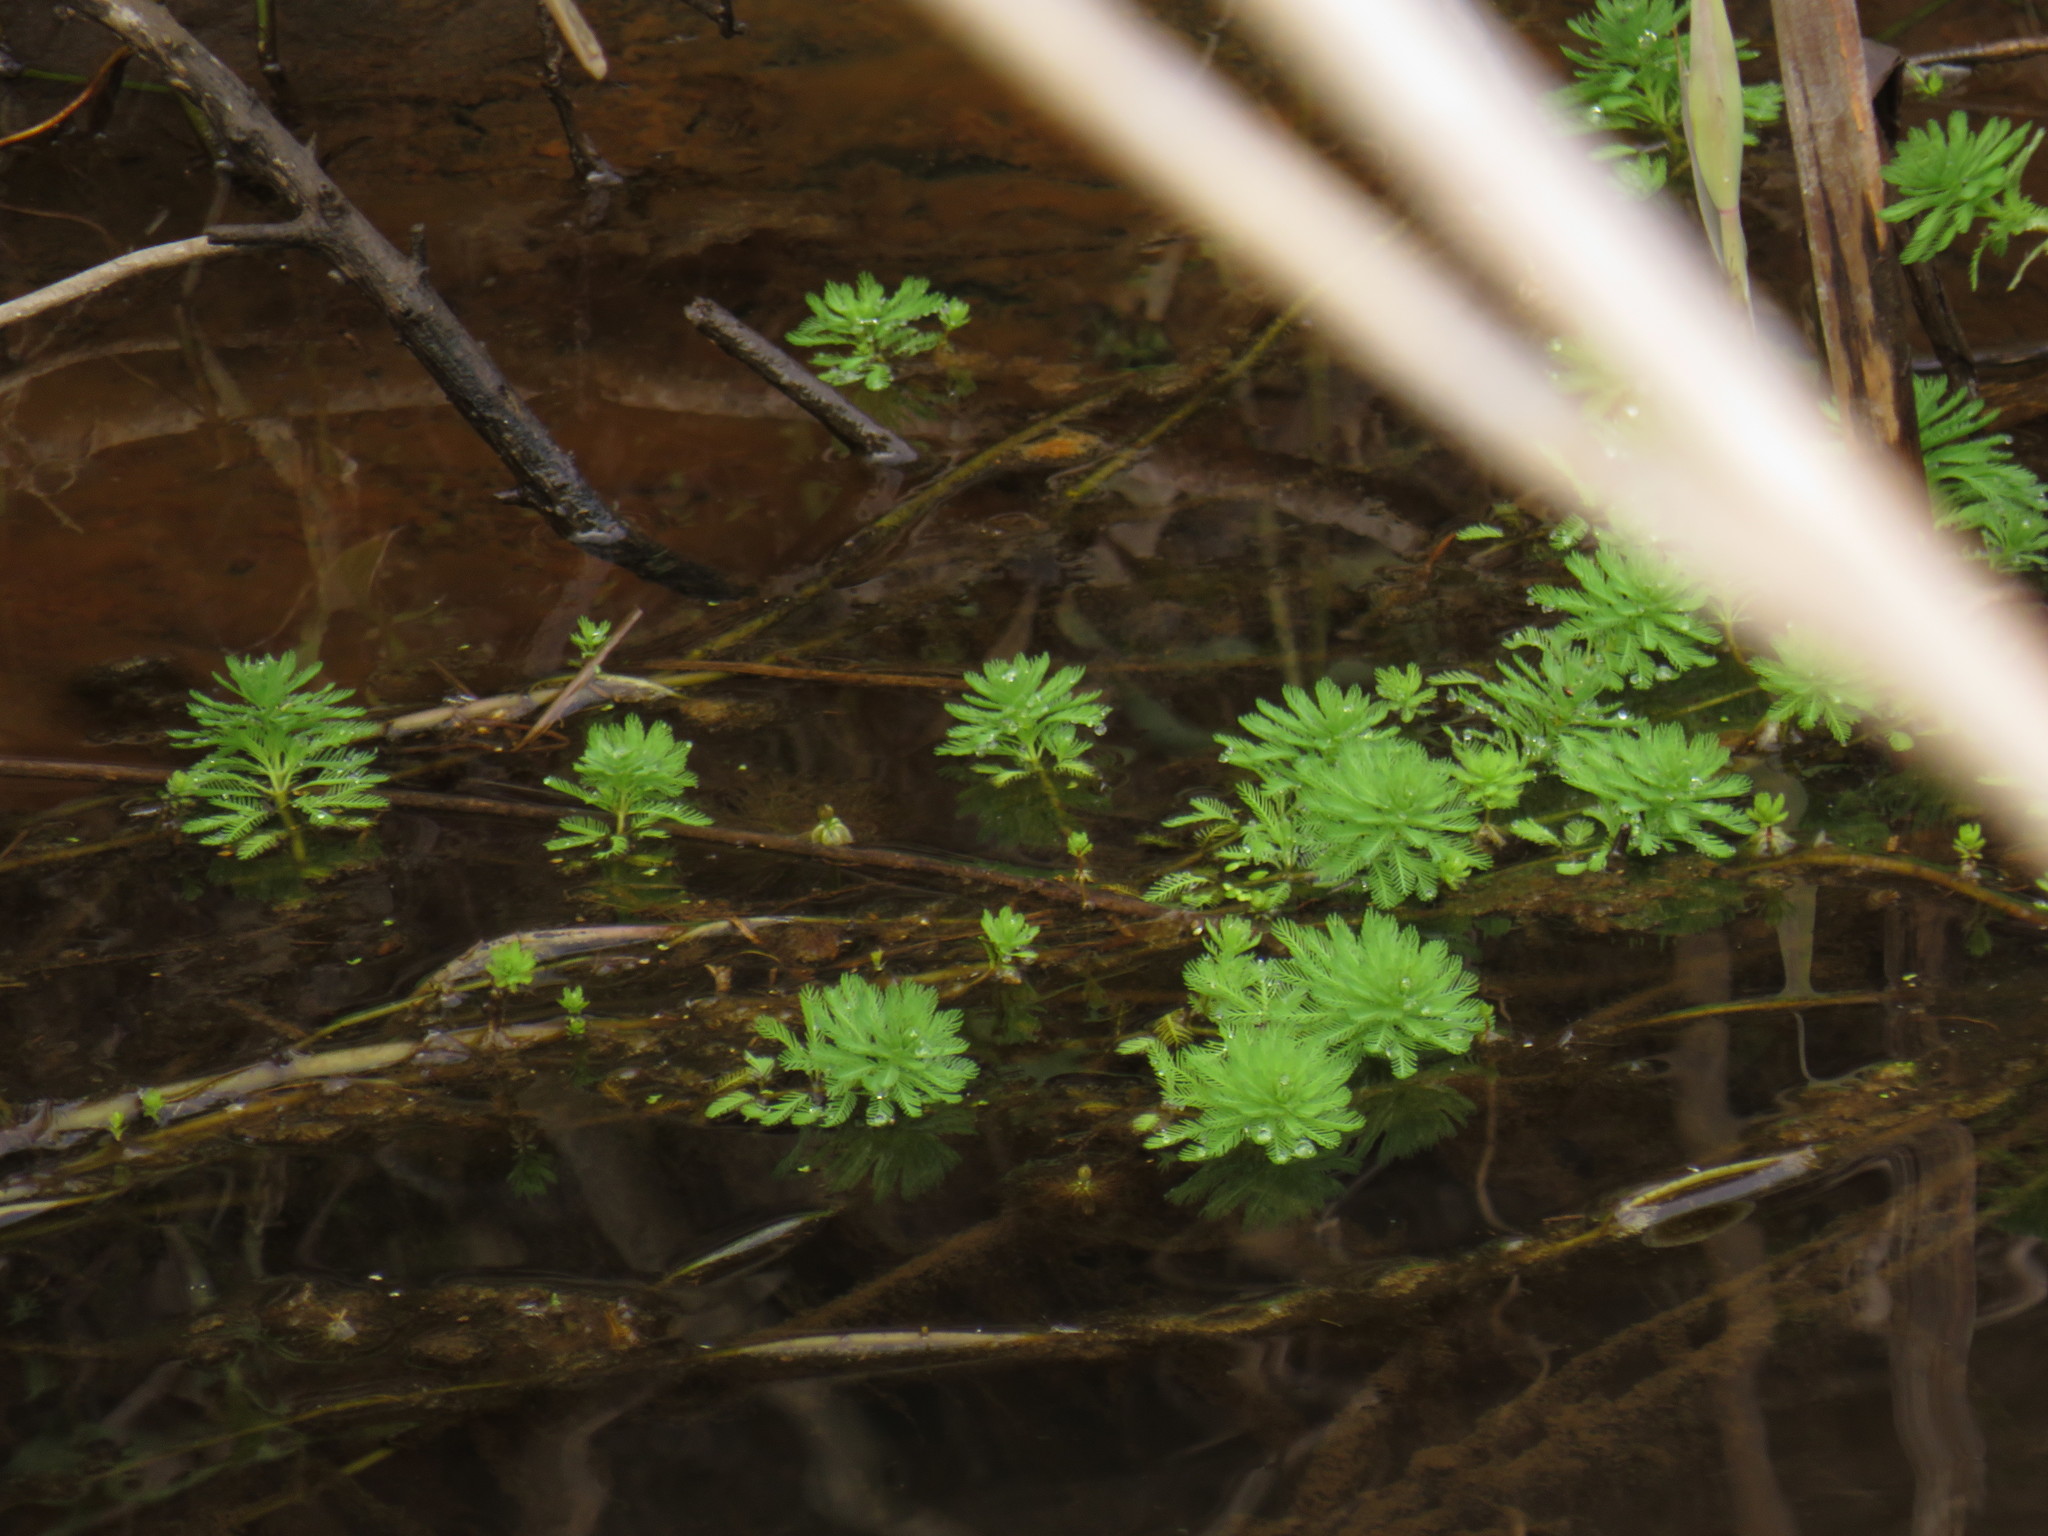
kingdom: Plantae
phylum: Tracheophyta
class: Magnoliopsida
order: Saxifragales
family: Haloragaceae
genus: Myriophyllum
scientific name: Myriophyllum aquaticum
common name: Parrot's feather
